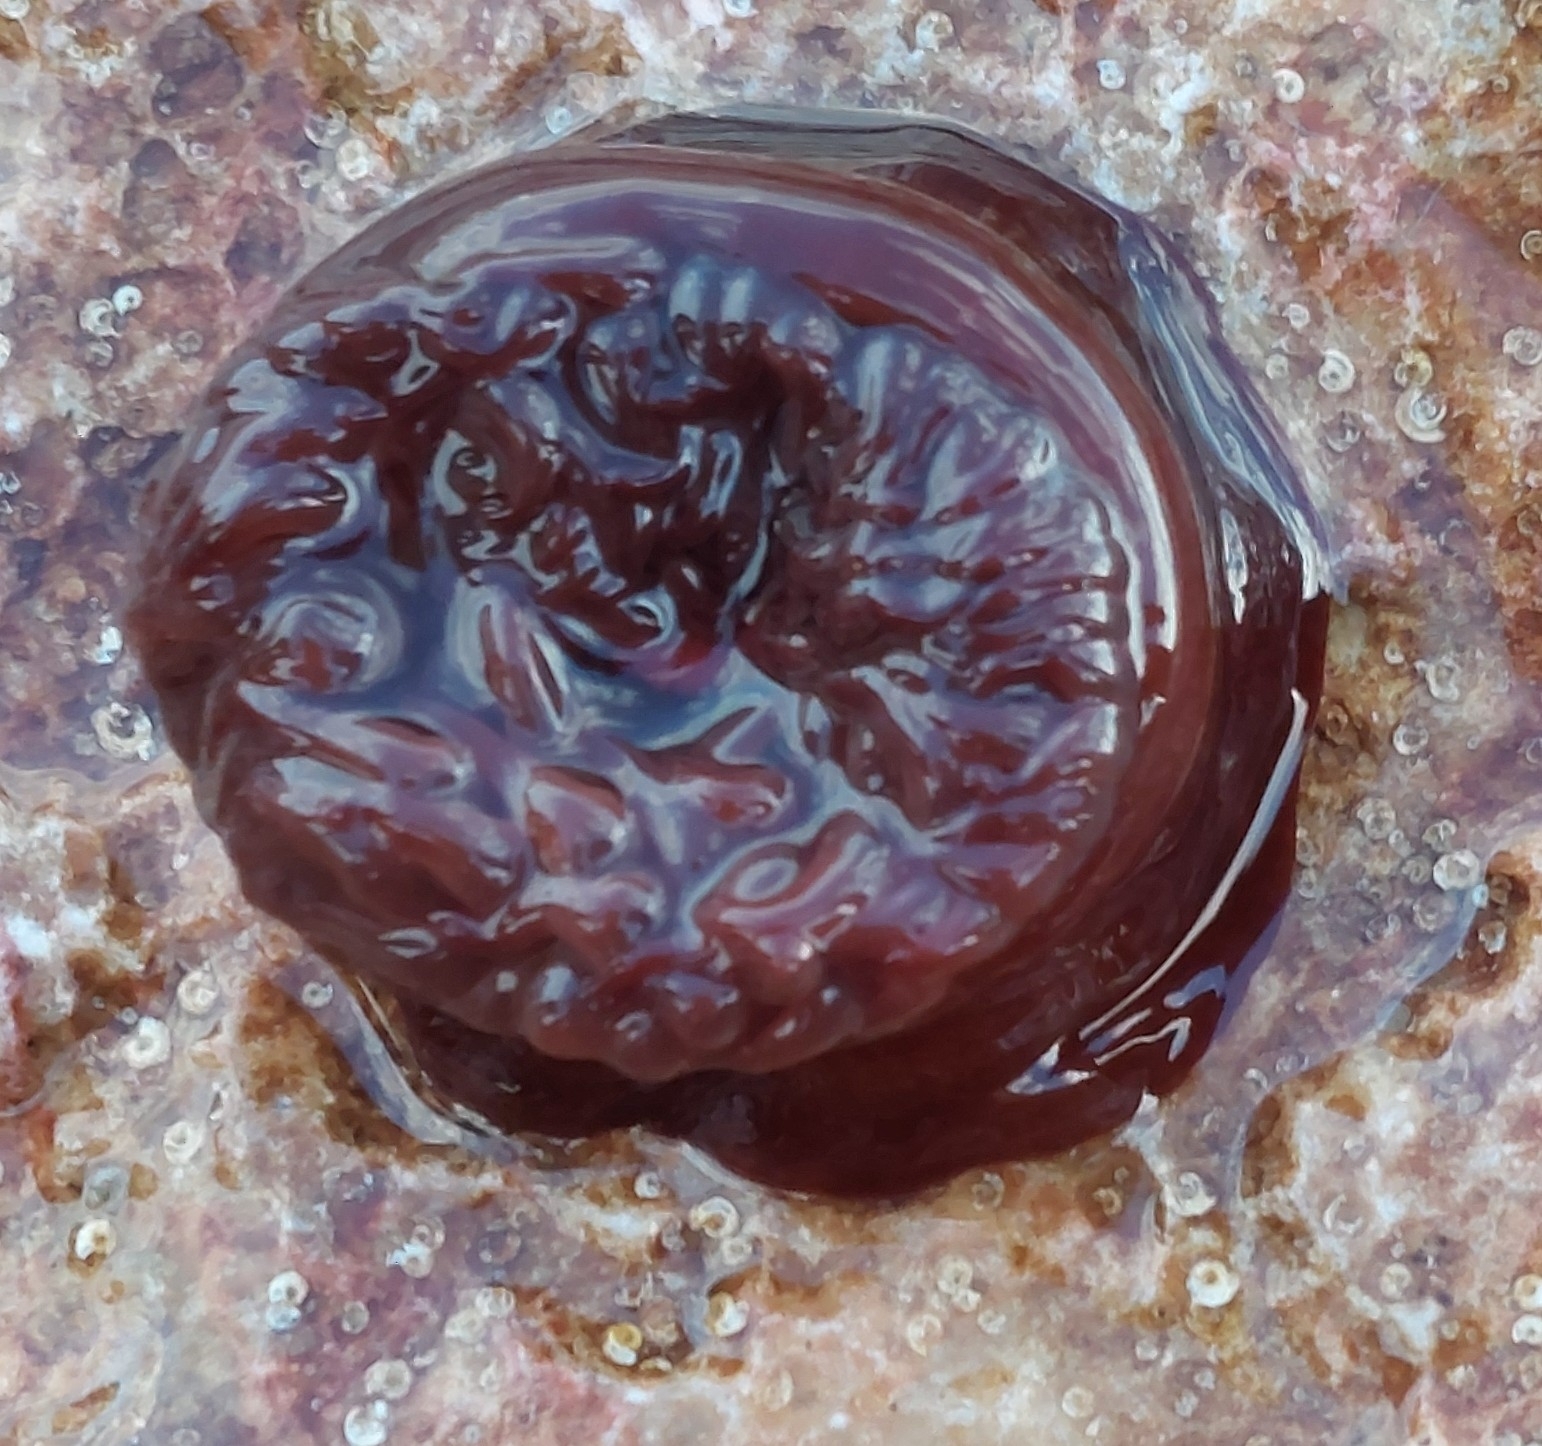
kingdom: Animalia
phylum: Cnidaria
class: Anthozoa
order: Actiniaria
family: Actiniidae
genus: Actinia
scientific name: Actinia equina
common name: Beadlet anemone
